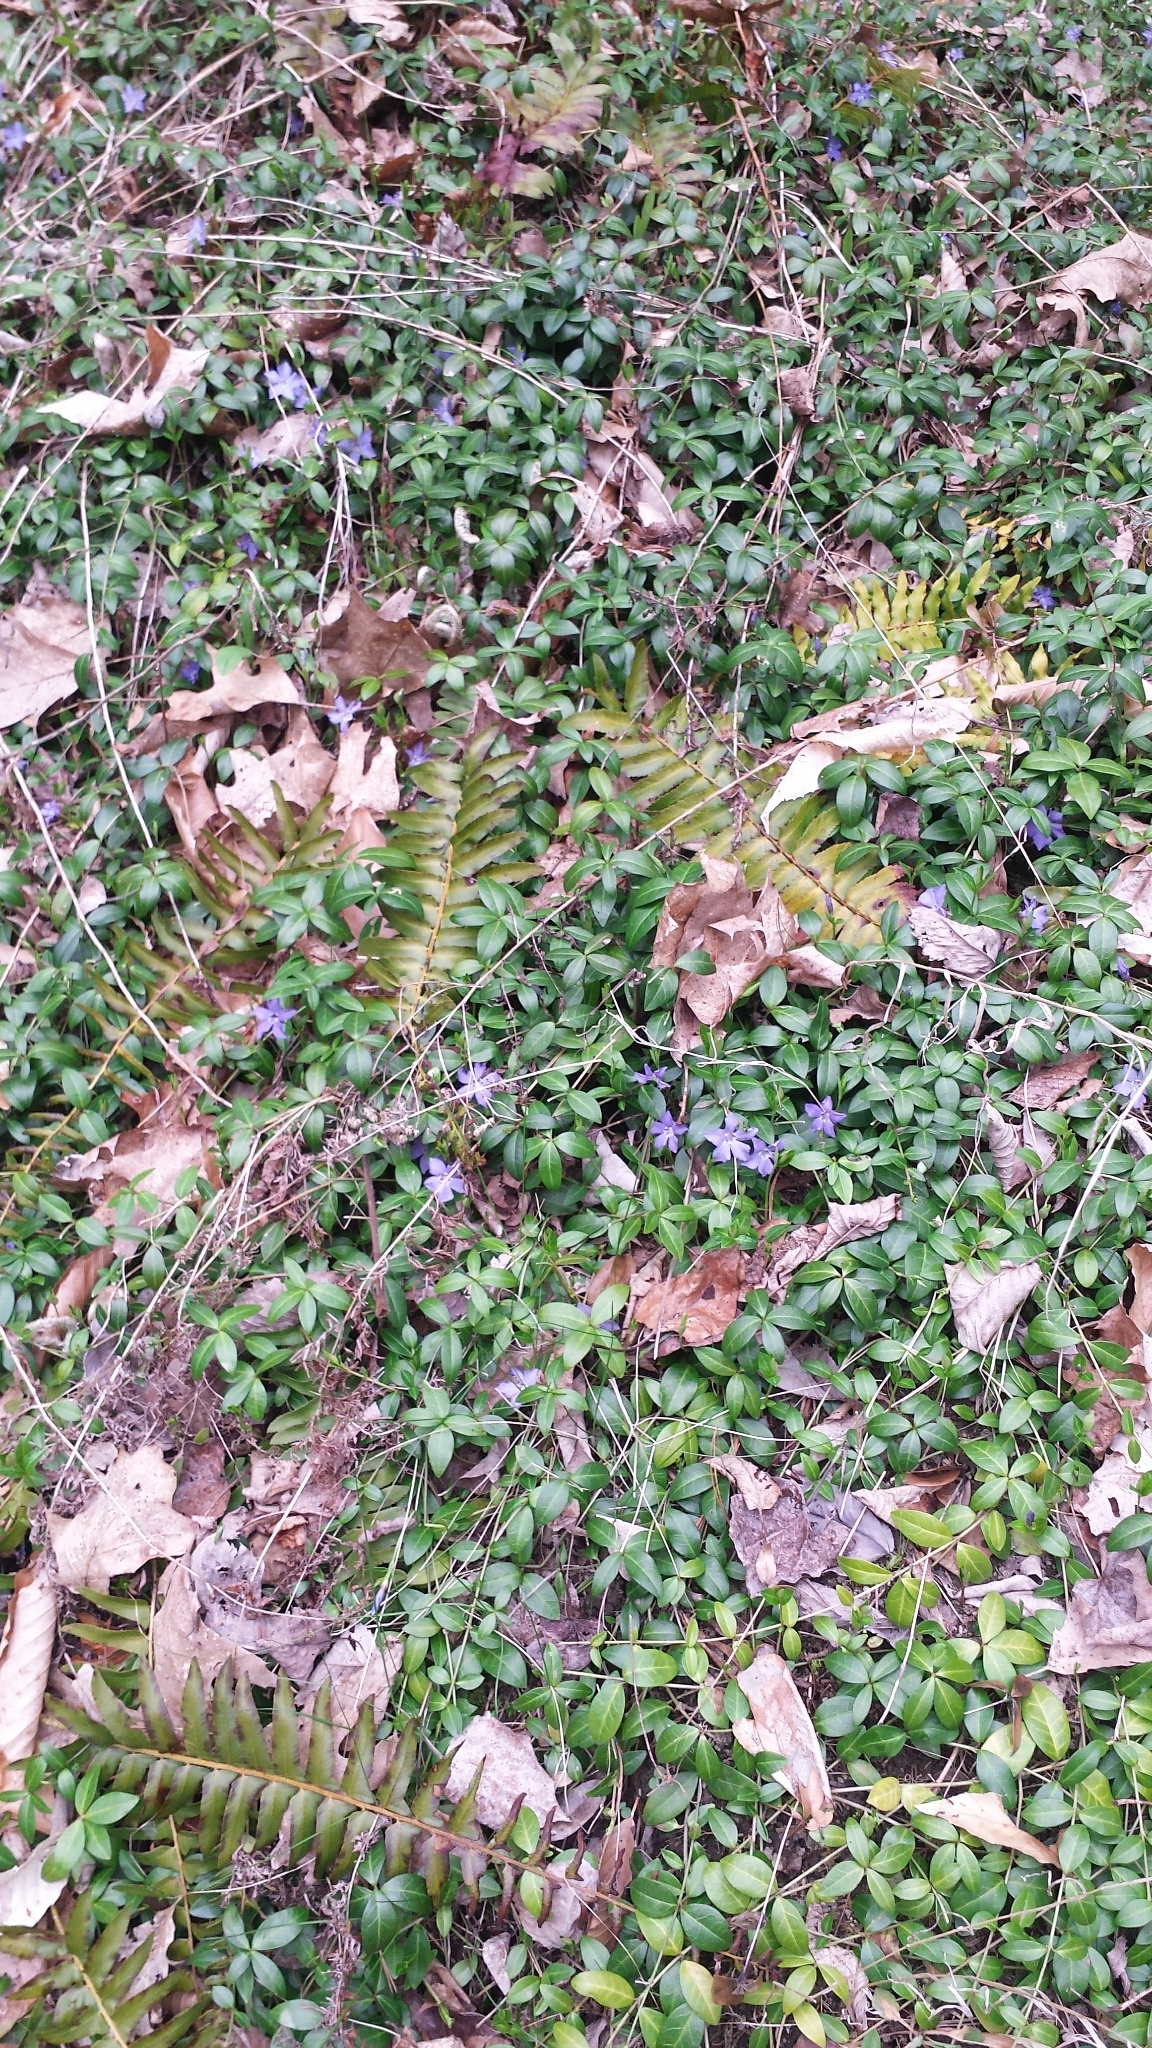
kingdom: Plantae
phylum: Tracheophyta
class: Magnoliopsida
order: Gentianales
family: Apocynaceae
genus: Vinca
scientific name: Vinca minor
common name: Lesser periwinkle
